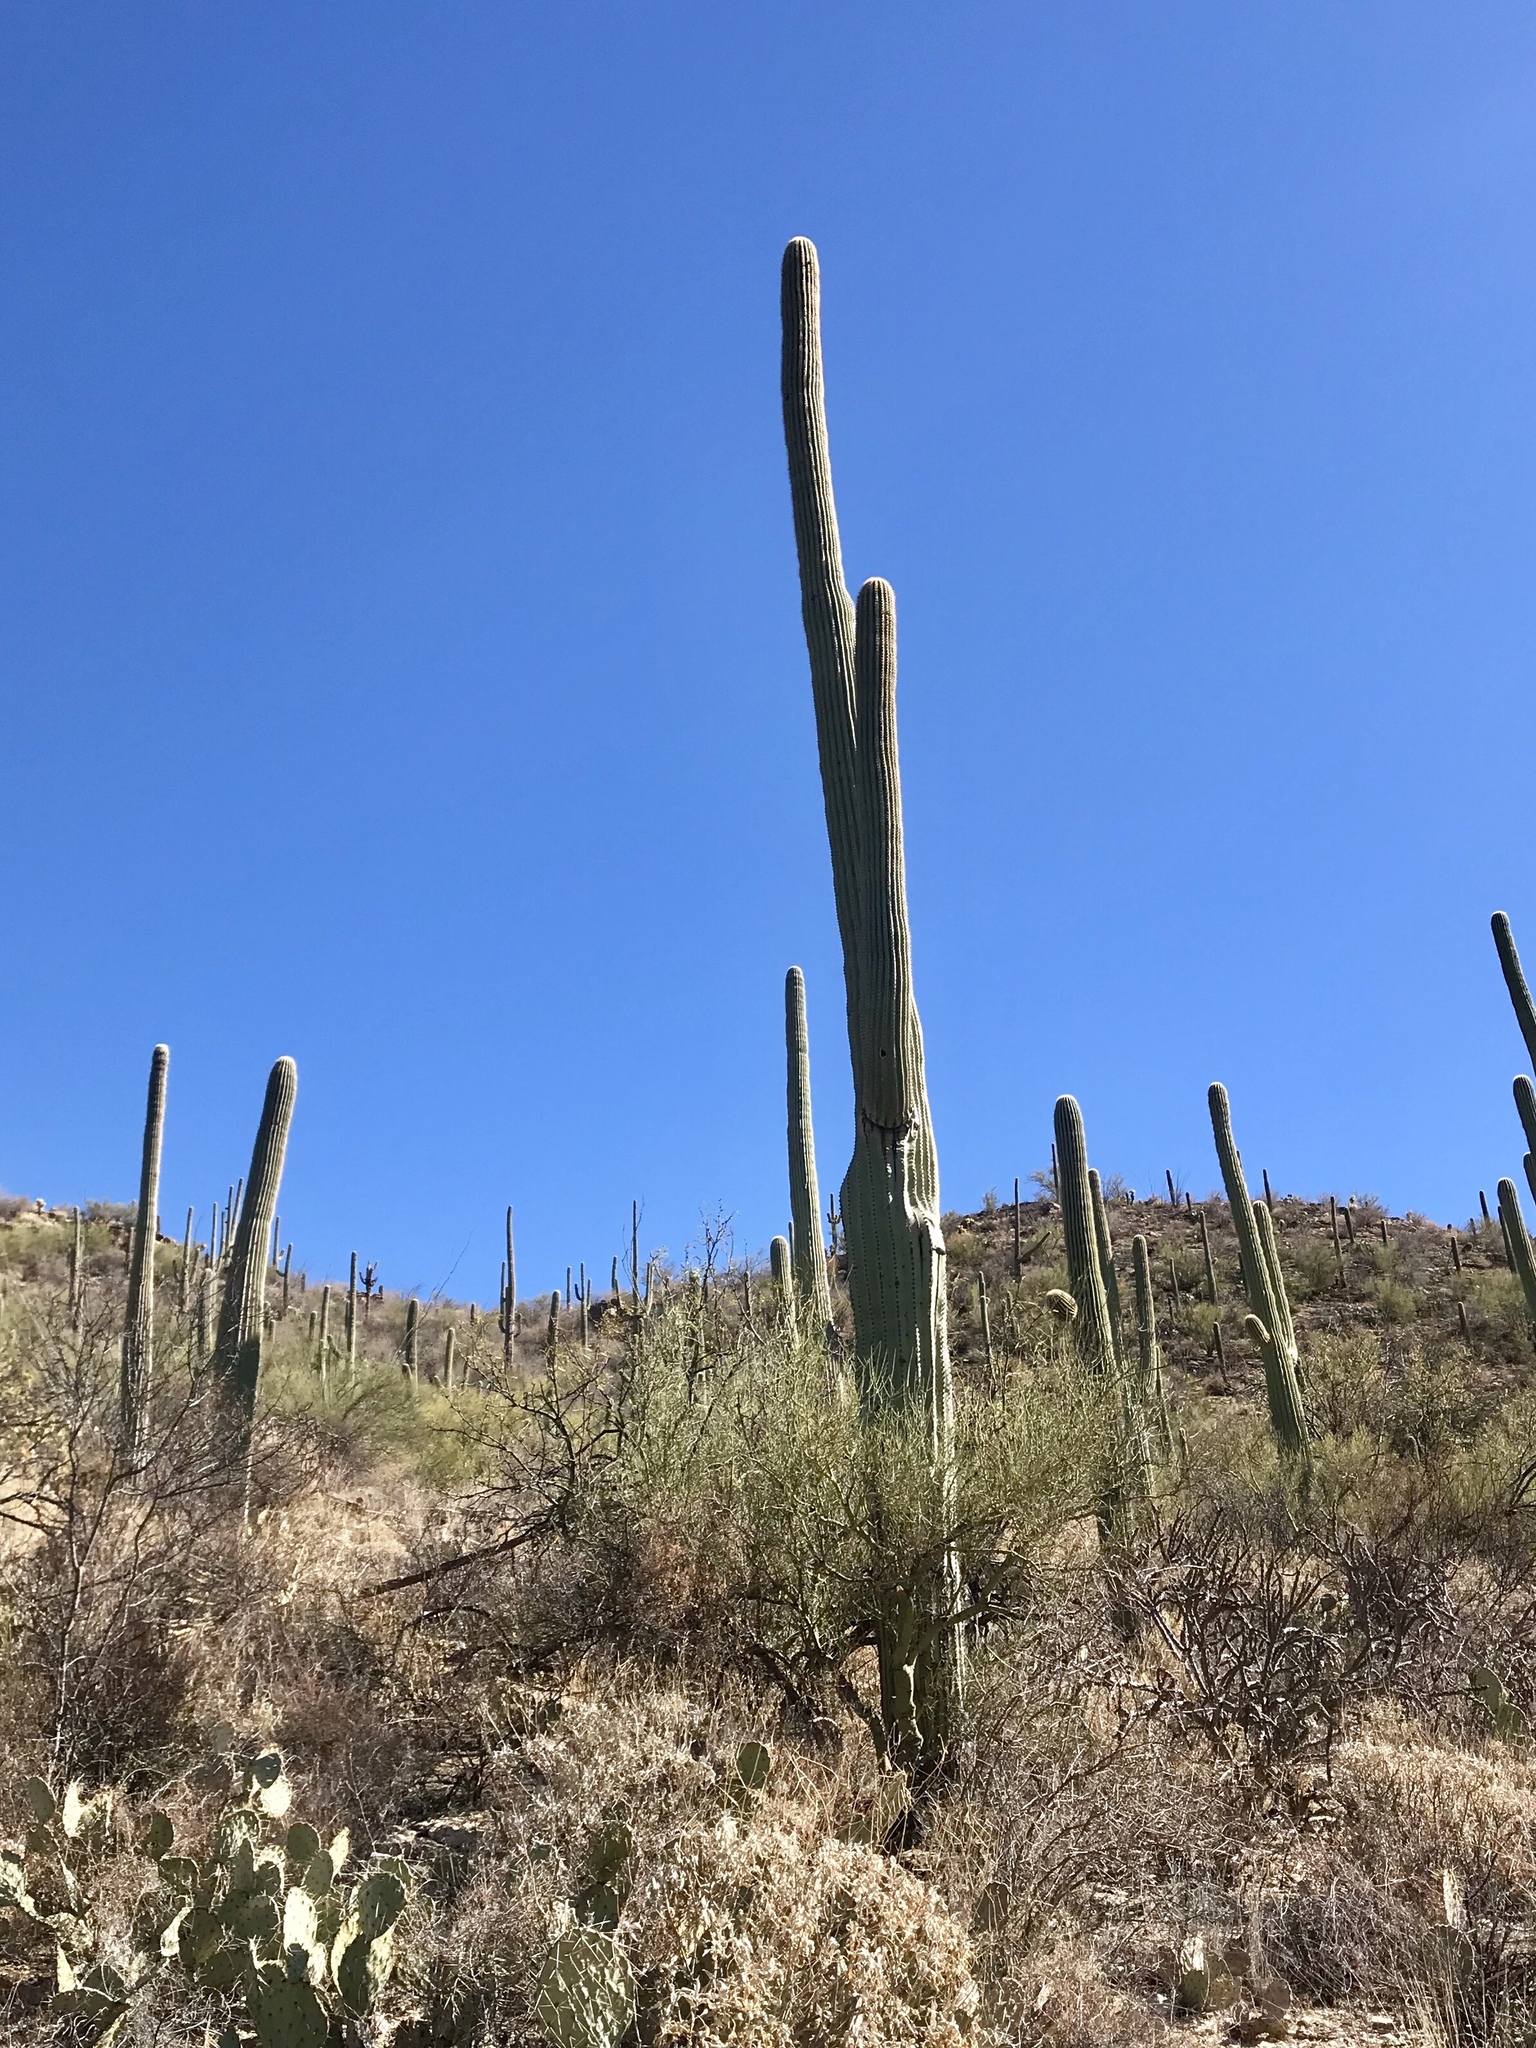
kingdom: Plantae
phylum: Tracheophyta
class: Magnoliopsida
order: Caryophyllales
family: Cactaceae
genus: Carnegiea
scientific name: Carnegiea gigantea
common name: Saguaro
